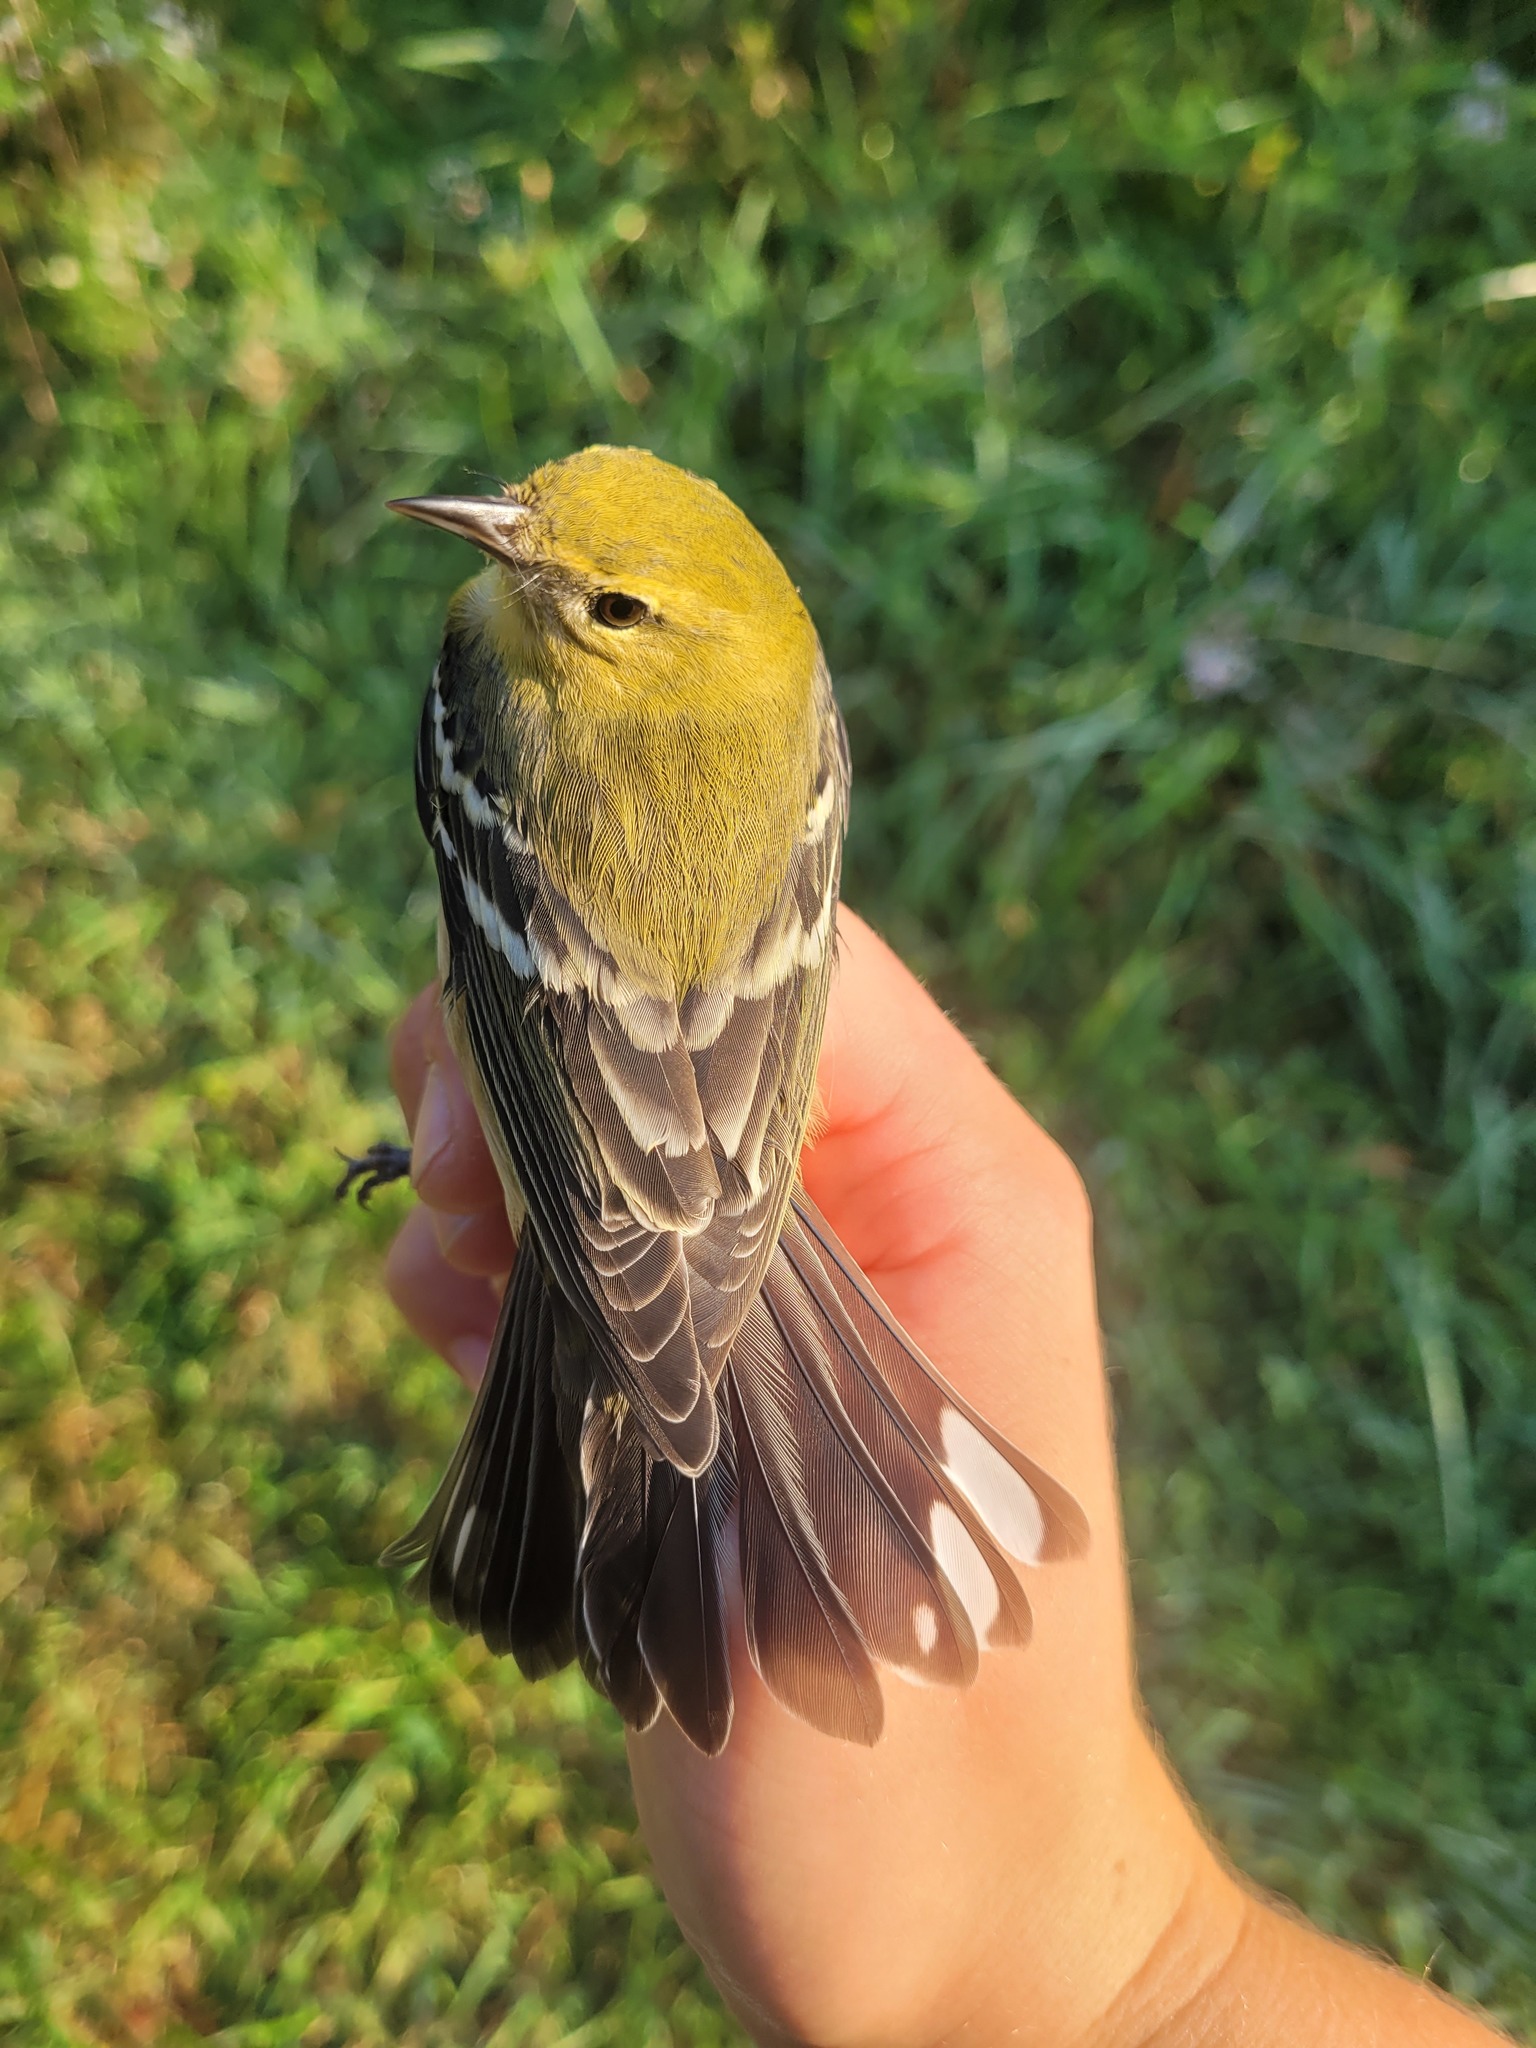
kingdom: Animalia
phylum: Chordata
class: Aves
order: Passeriformes
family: Parulidae
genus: Setophaga
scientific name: Setophaga castanea
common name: Bay-breasted warbler
